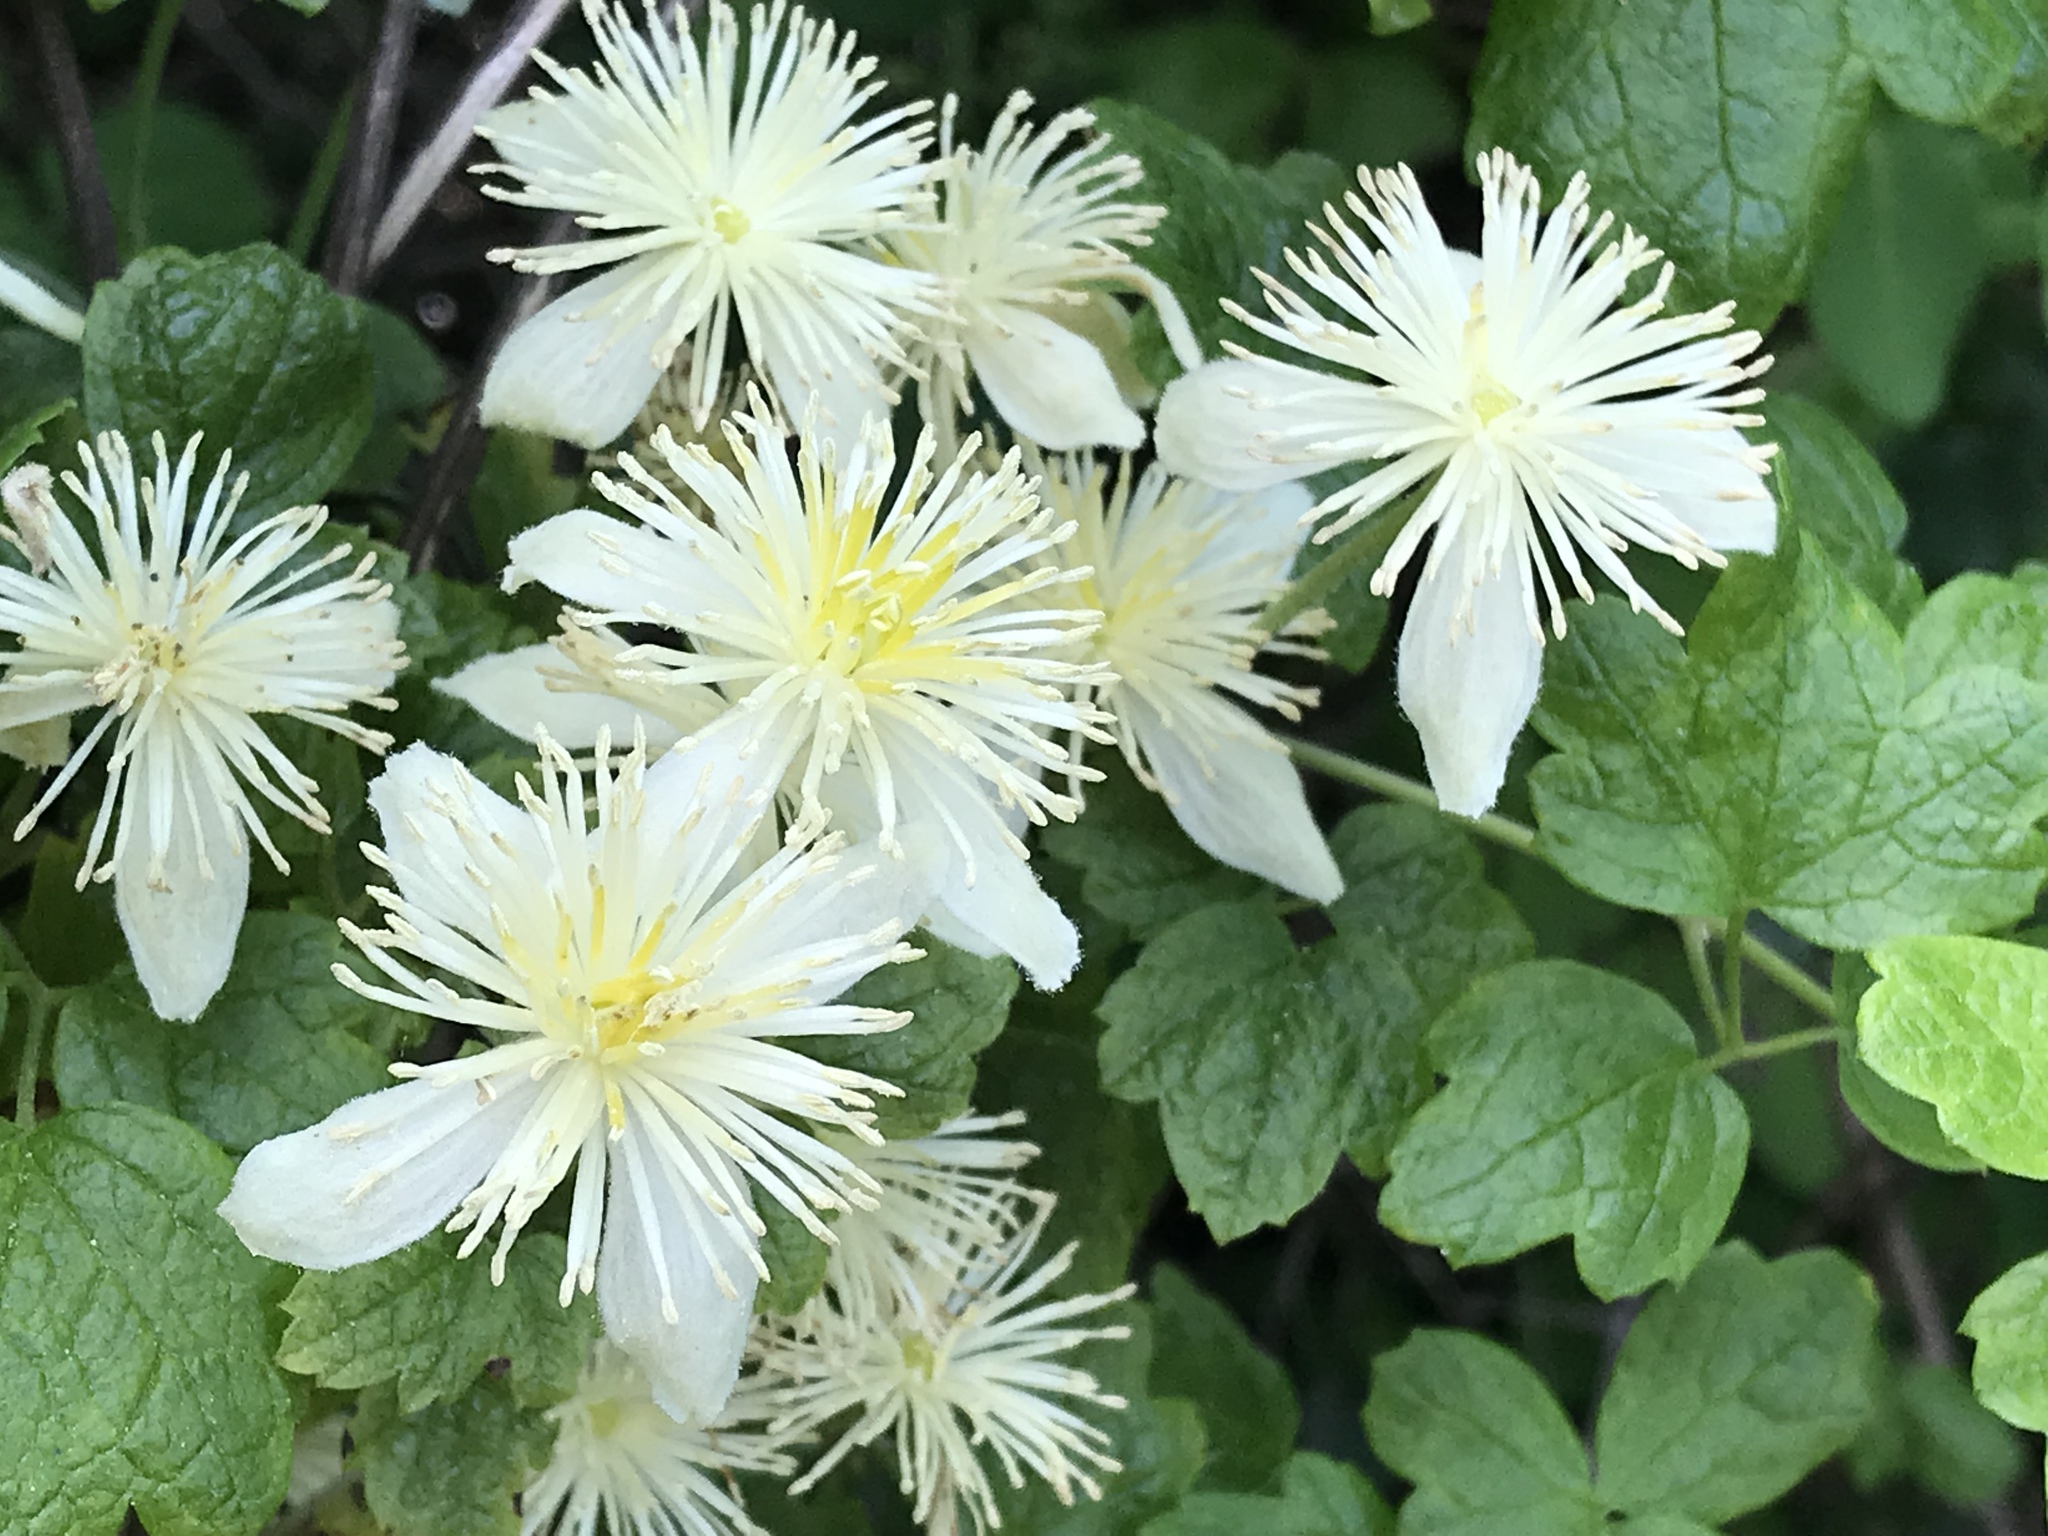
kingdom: Plantae
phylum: Tracheophyta
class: Magnoliopsida
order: Ranunculales
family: Ranunculaceae
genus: Clematis
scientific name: Clematis lasiantha
